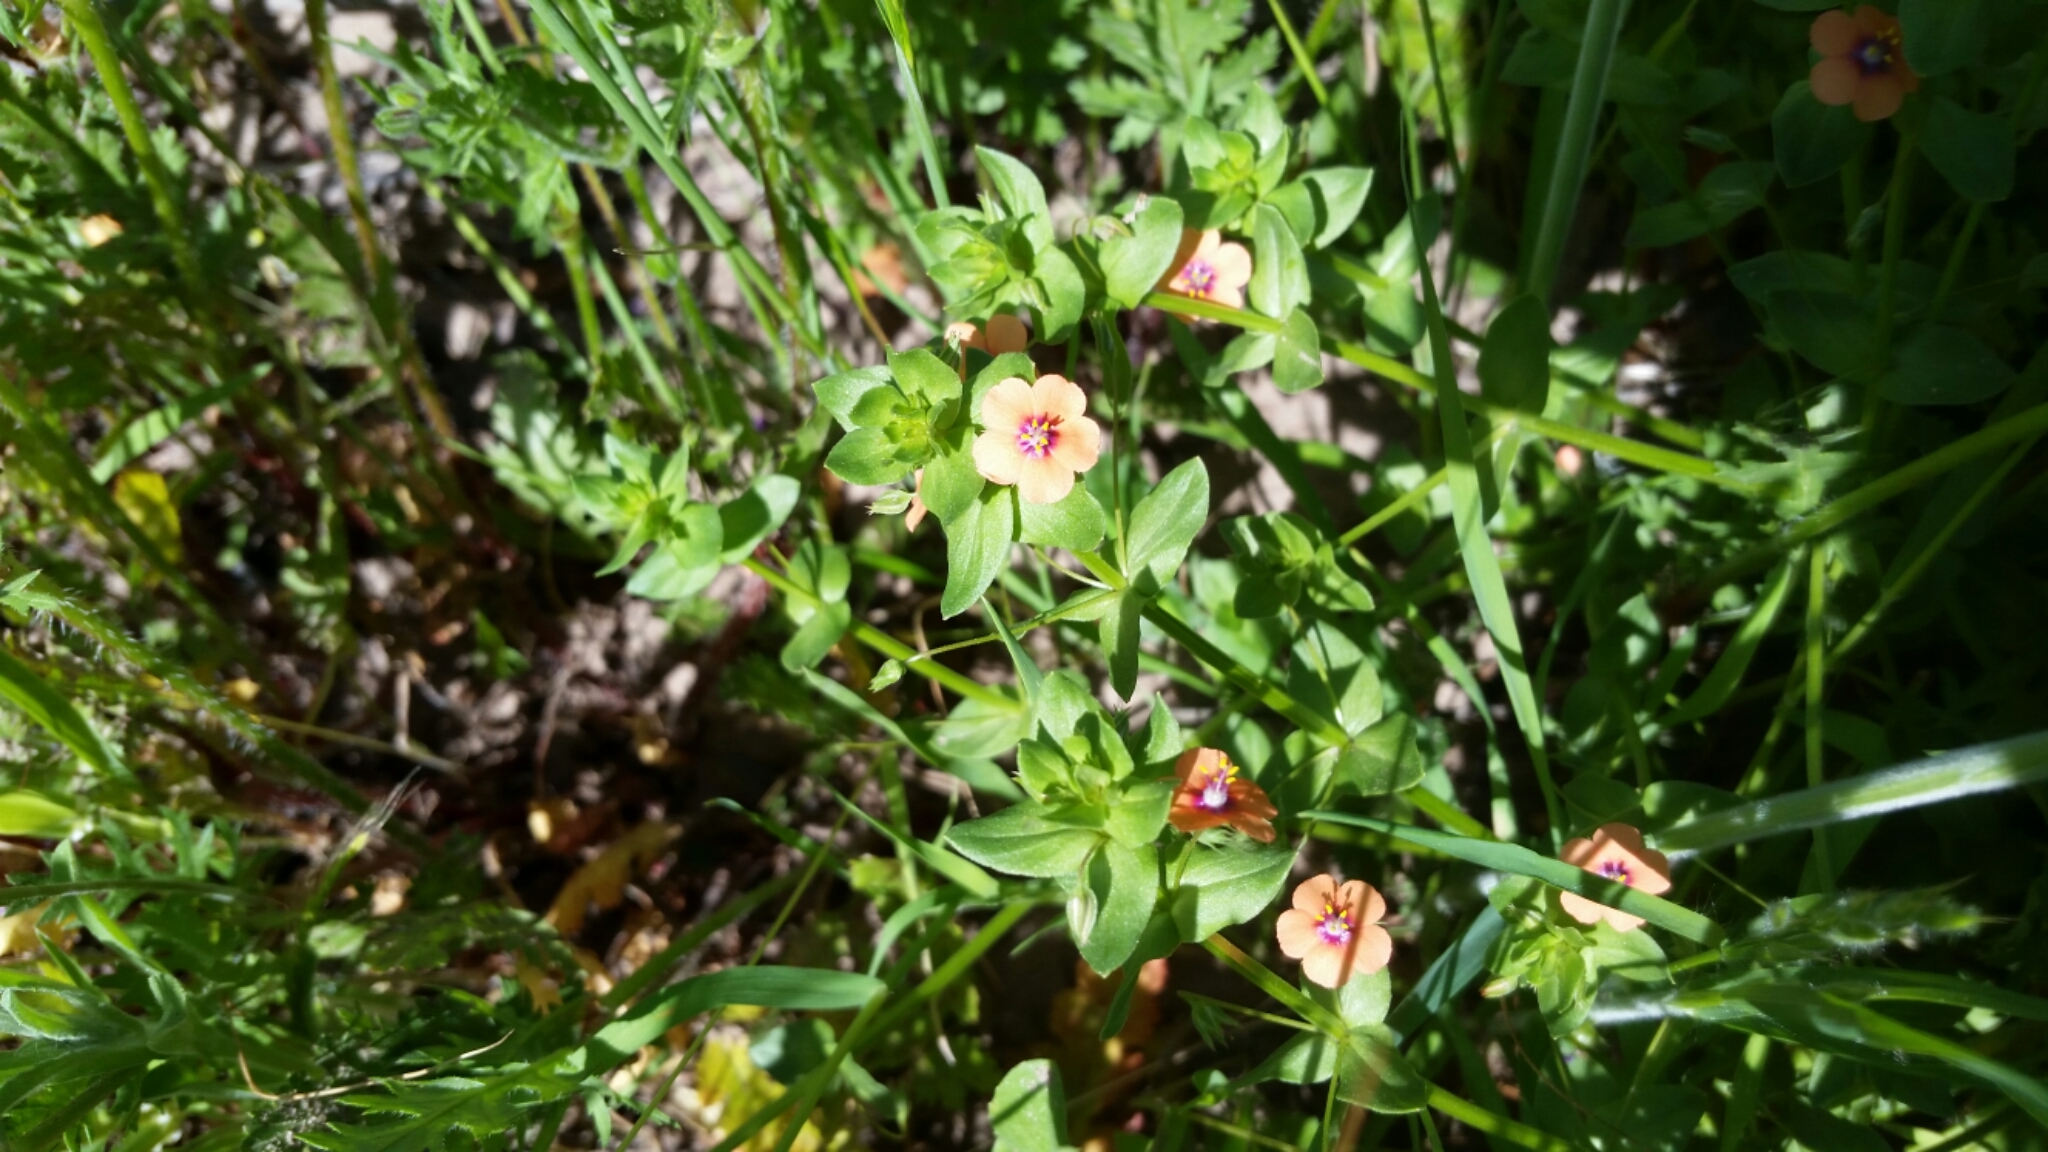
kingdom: Plantae
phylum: Tracheophyta
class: Magnoliopsida
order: Ericales
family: Primulaceae
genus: Lysimachia
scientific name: Lysimachia arvensis
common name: Scarlet pimpernel
